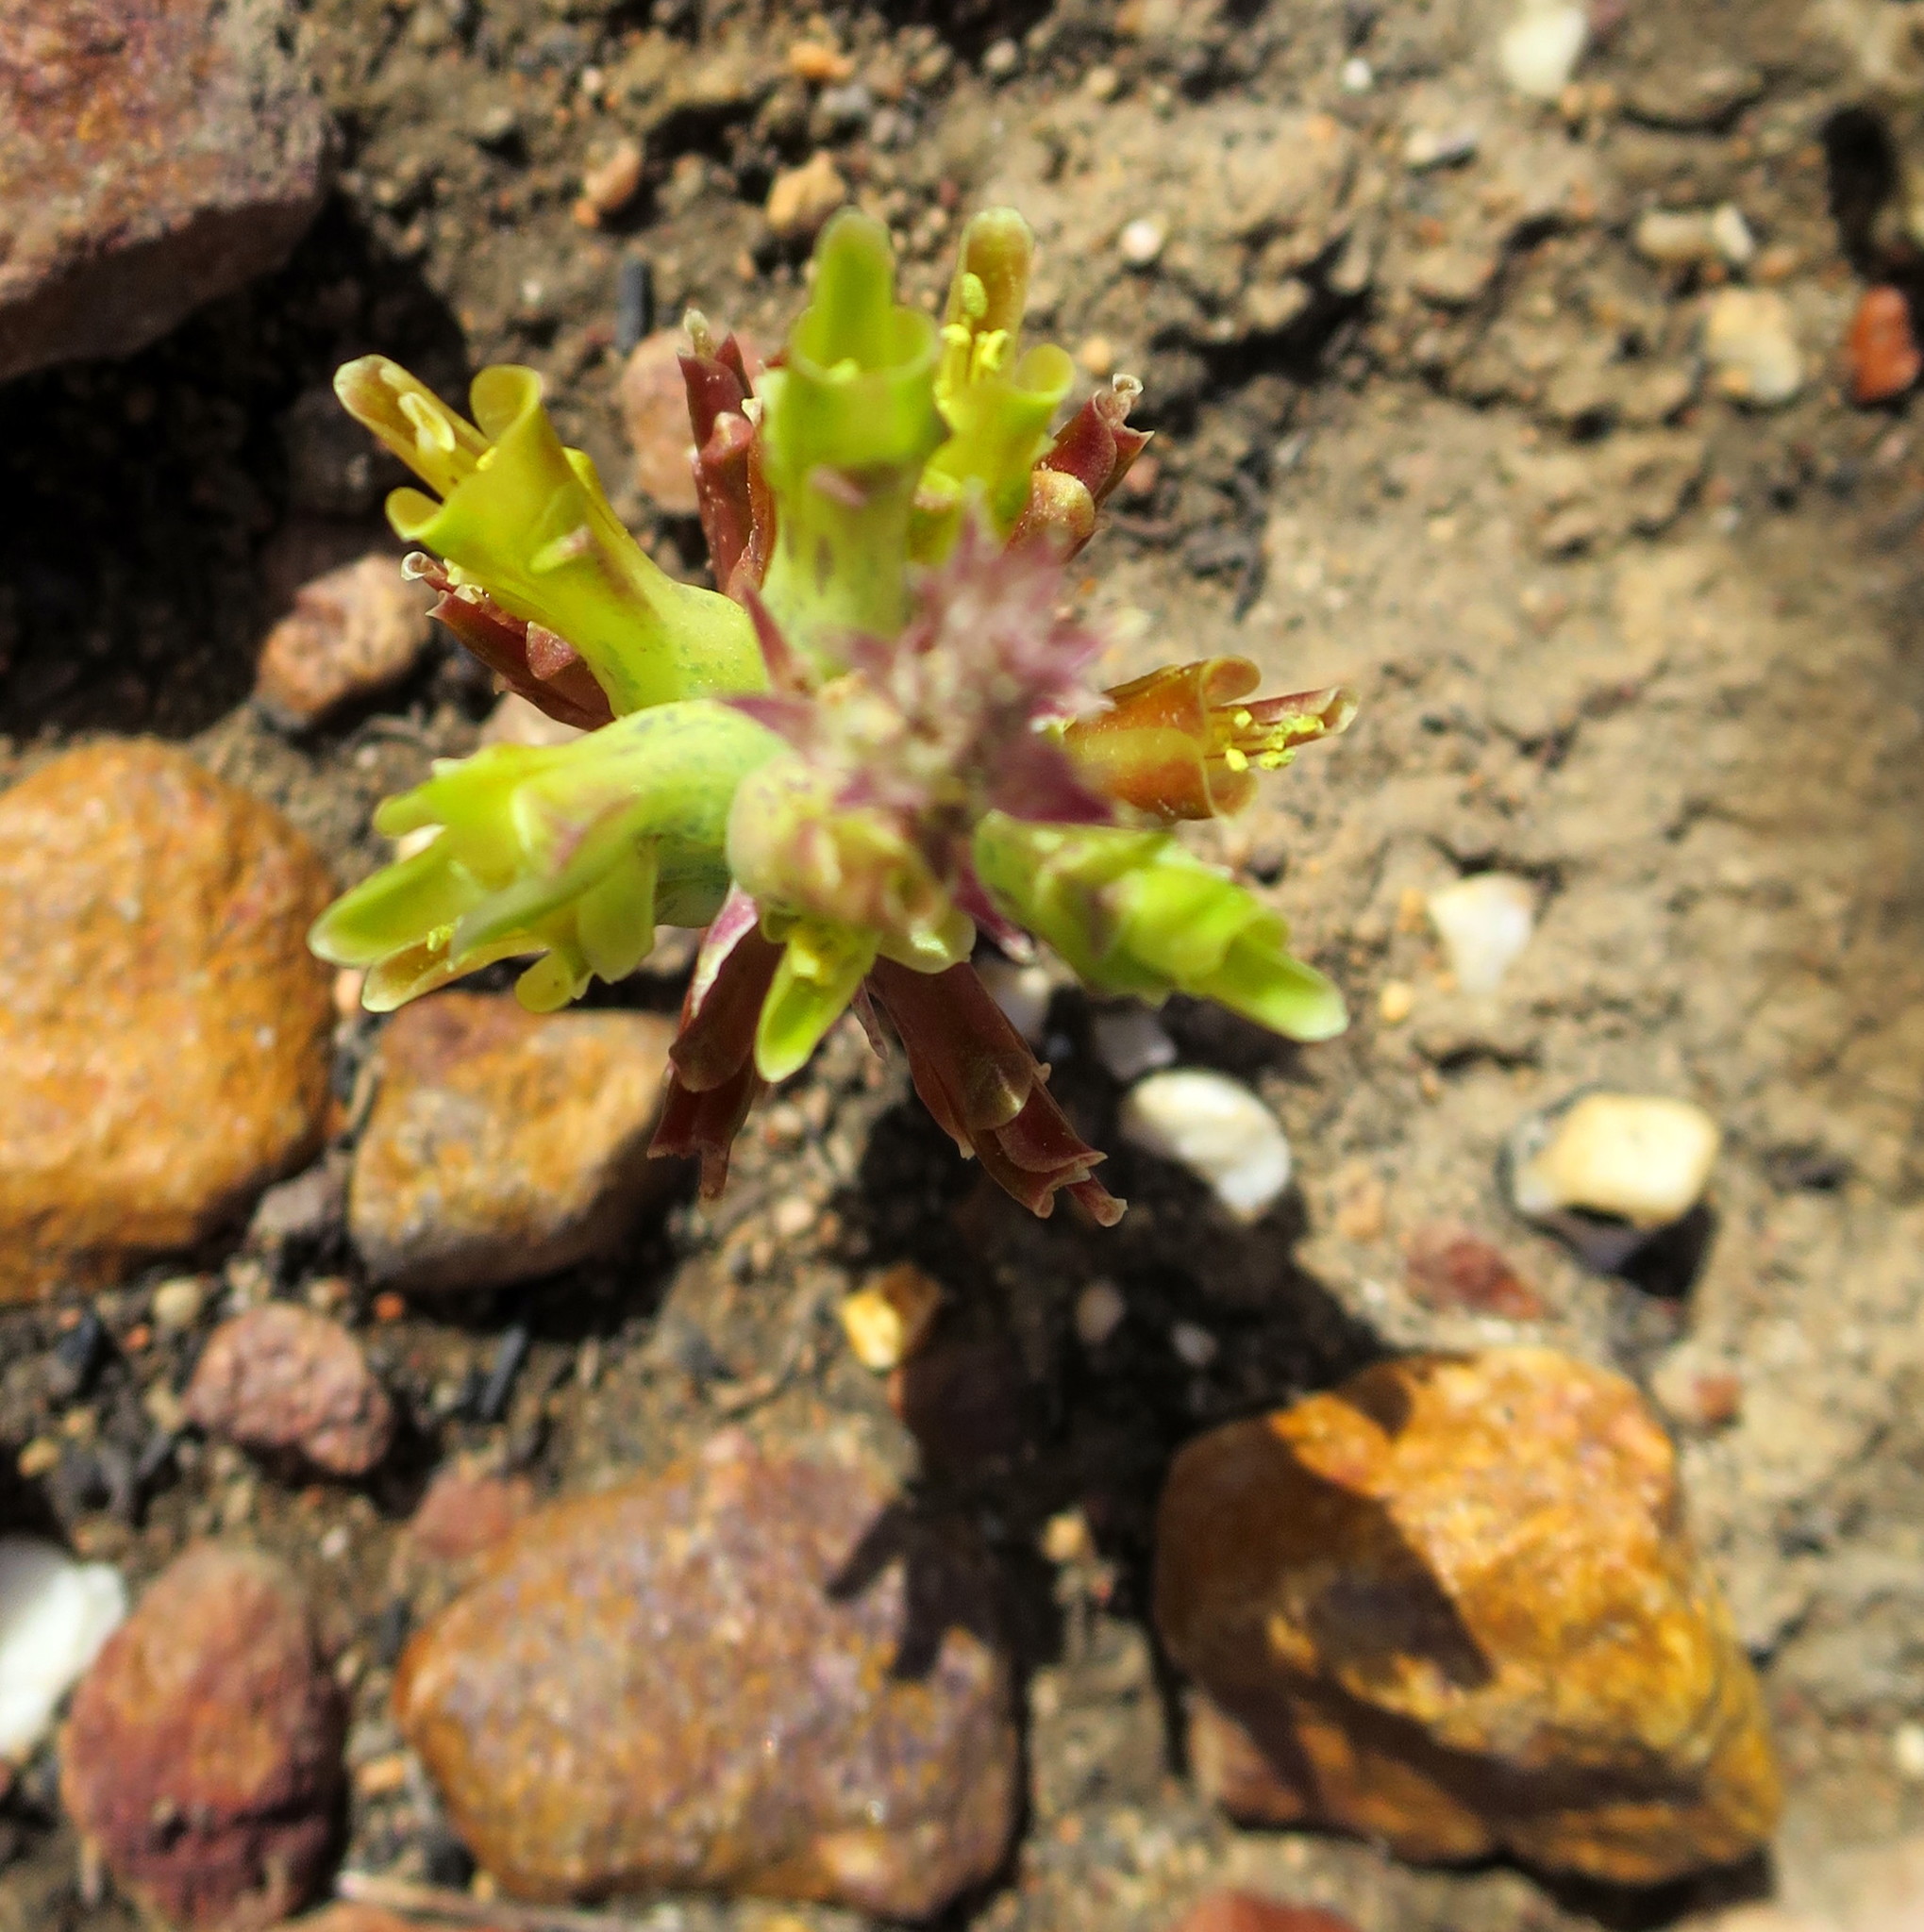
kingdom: Plantae
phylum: Tracheophyta
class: Liliopsida
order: Asparagales
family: Asparagaceae
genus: Lachenalia
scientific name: Lachenalia orchioides
